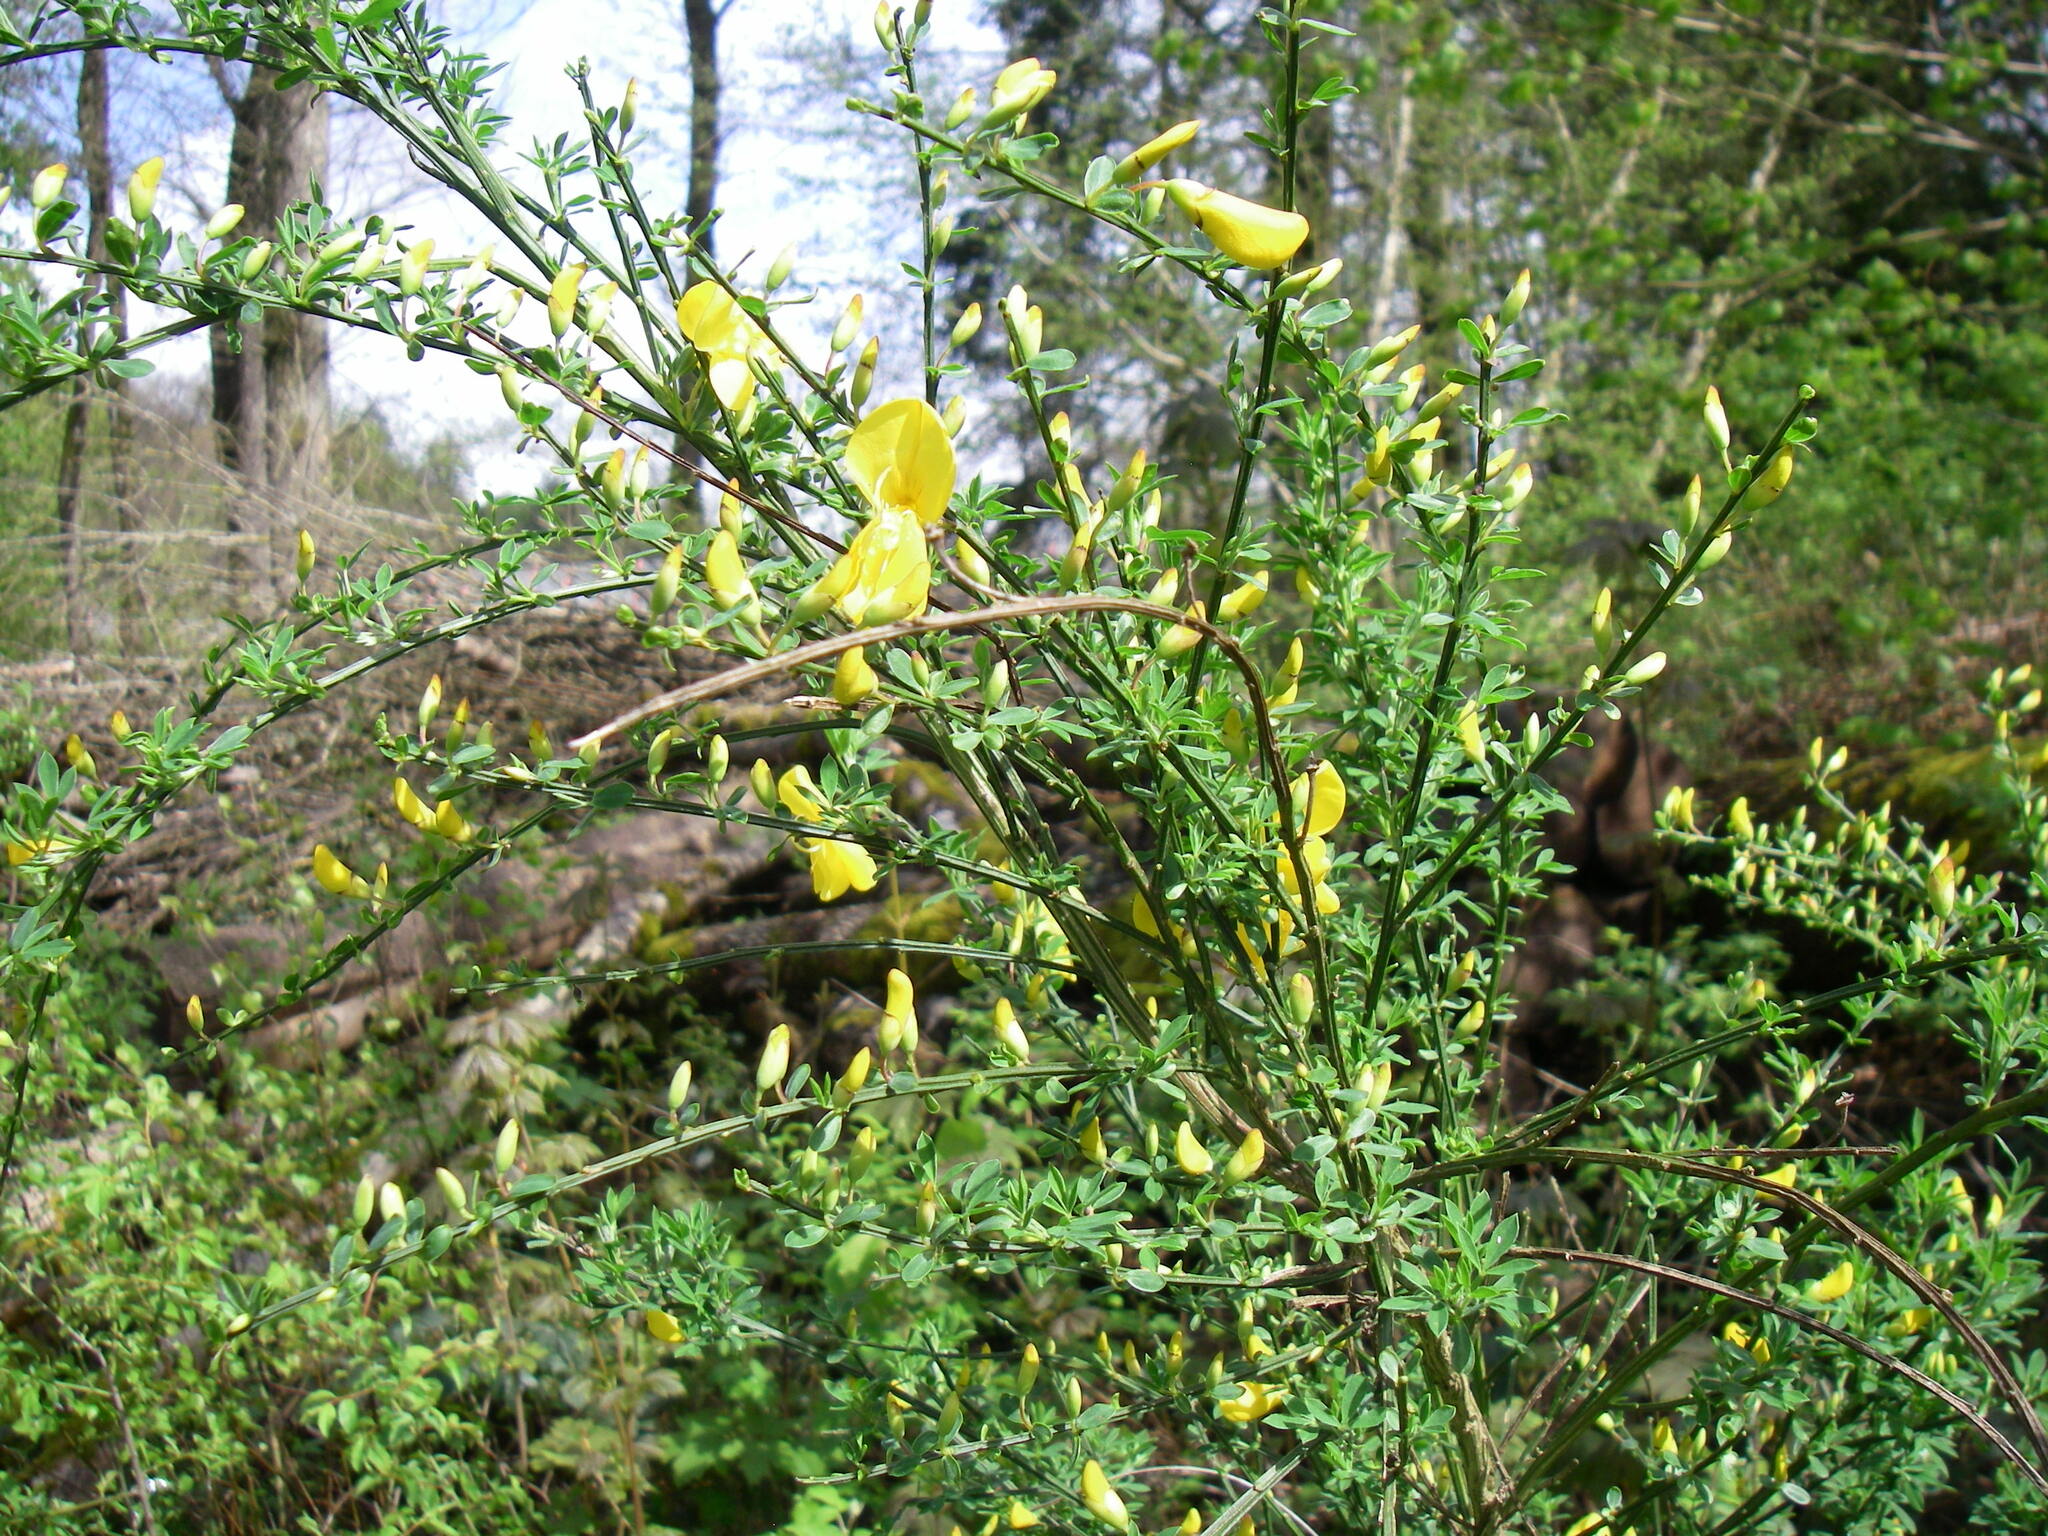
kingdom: Plantae
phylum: Tracheophyta
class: Magnoliopsida
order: Fabales
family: Fabaceae
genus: Cytisus
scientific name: Cytisus scoparius
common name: Scotch broom
